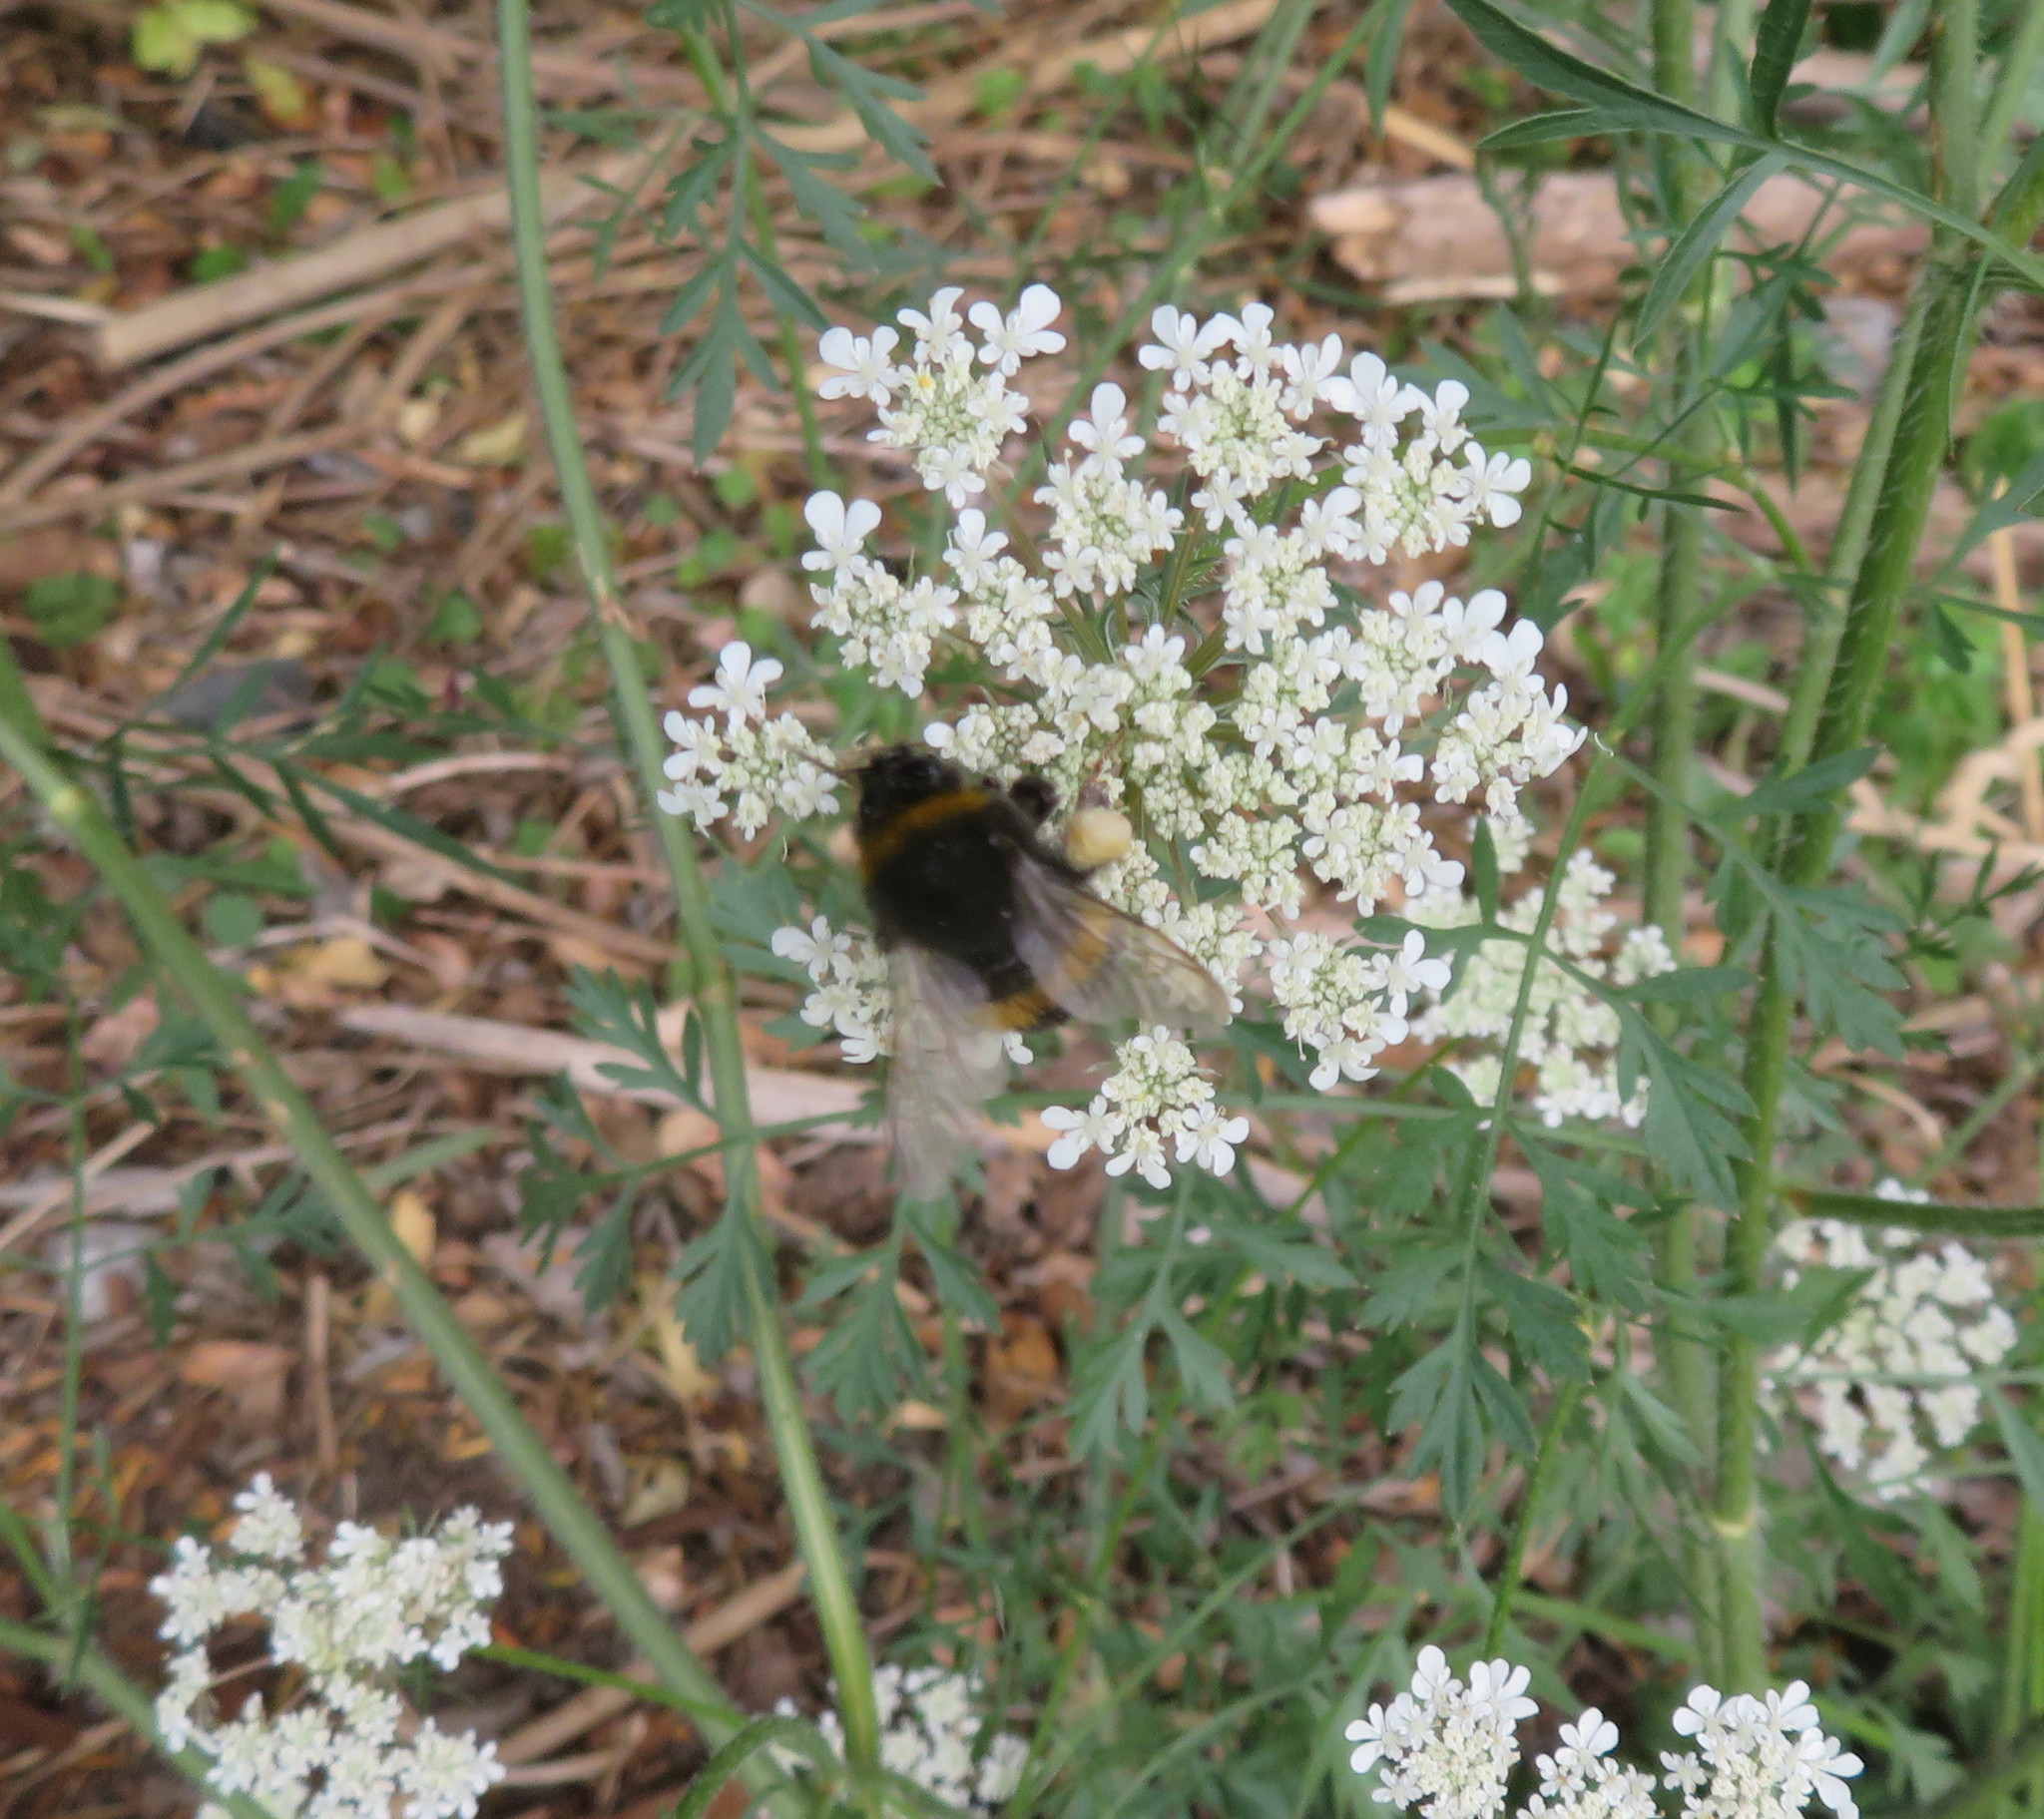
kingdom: Animalia
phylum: Arthropoda
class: Insecta
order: Hymenoptera
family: Apidae
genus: Bombus
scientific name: Bombus terrestris
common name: Buff-tailed bumblebee
